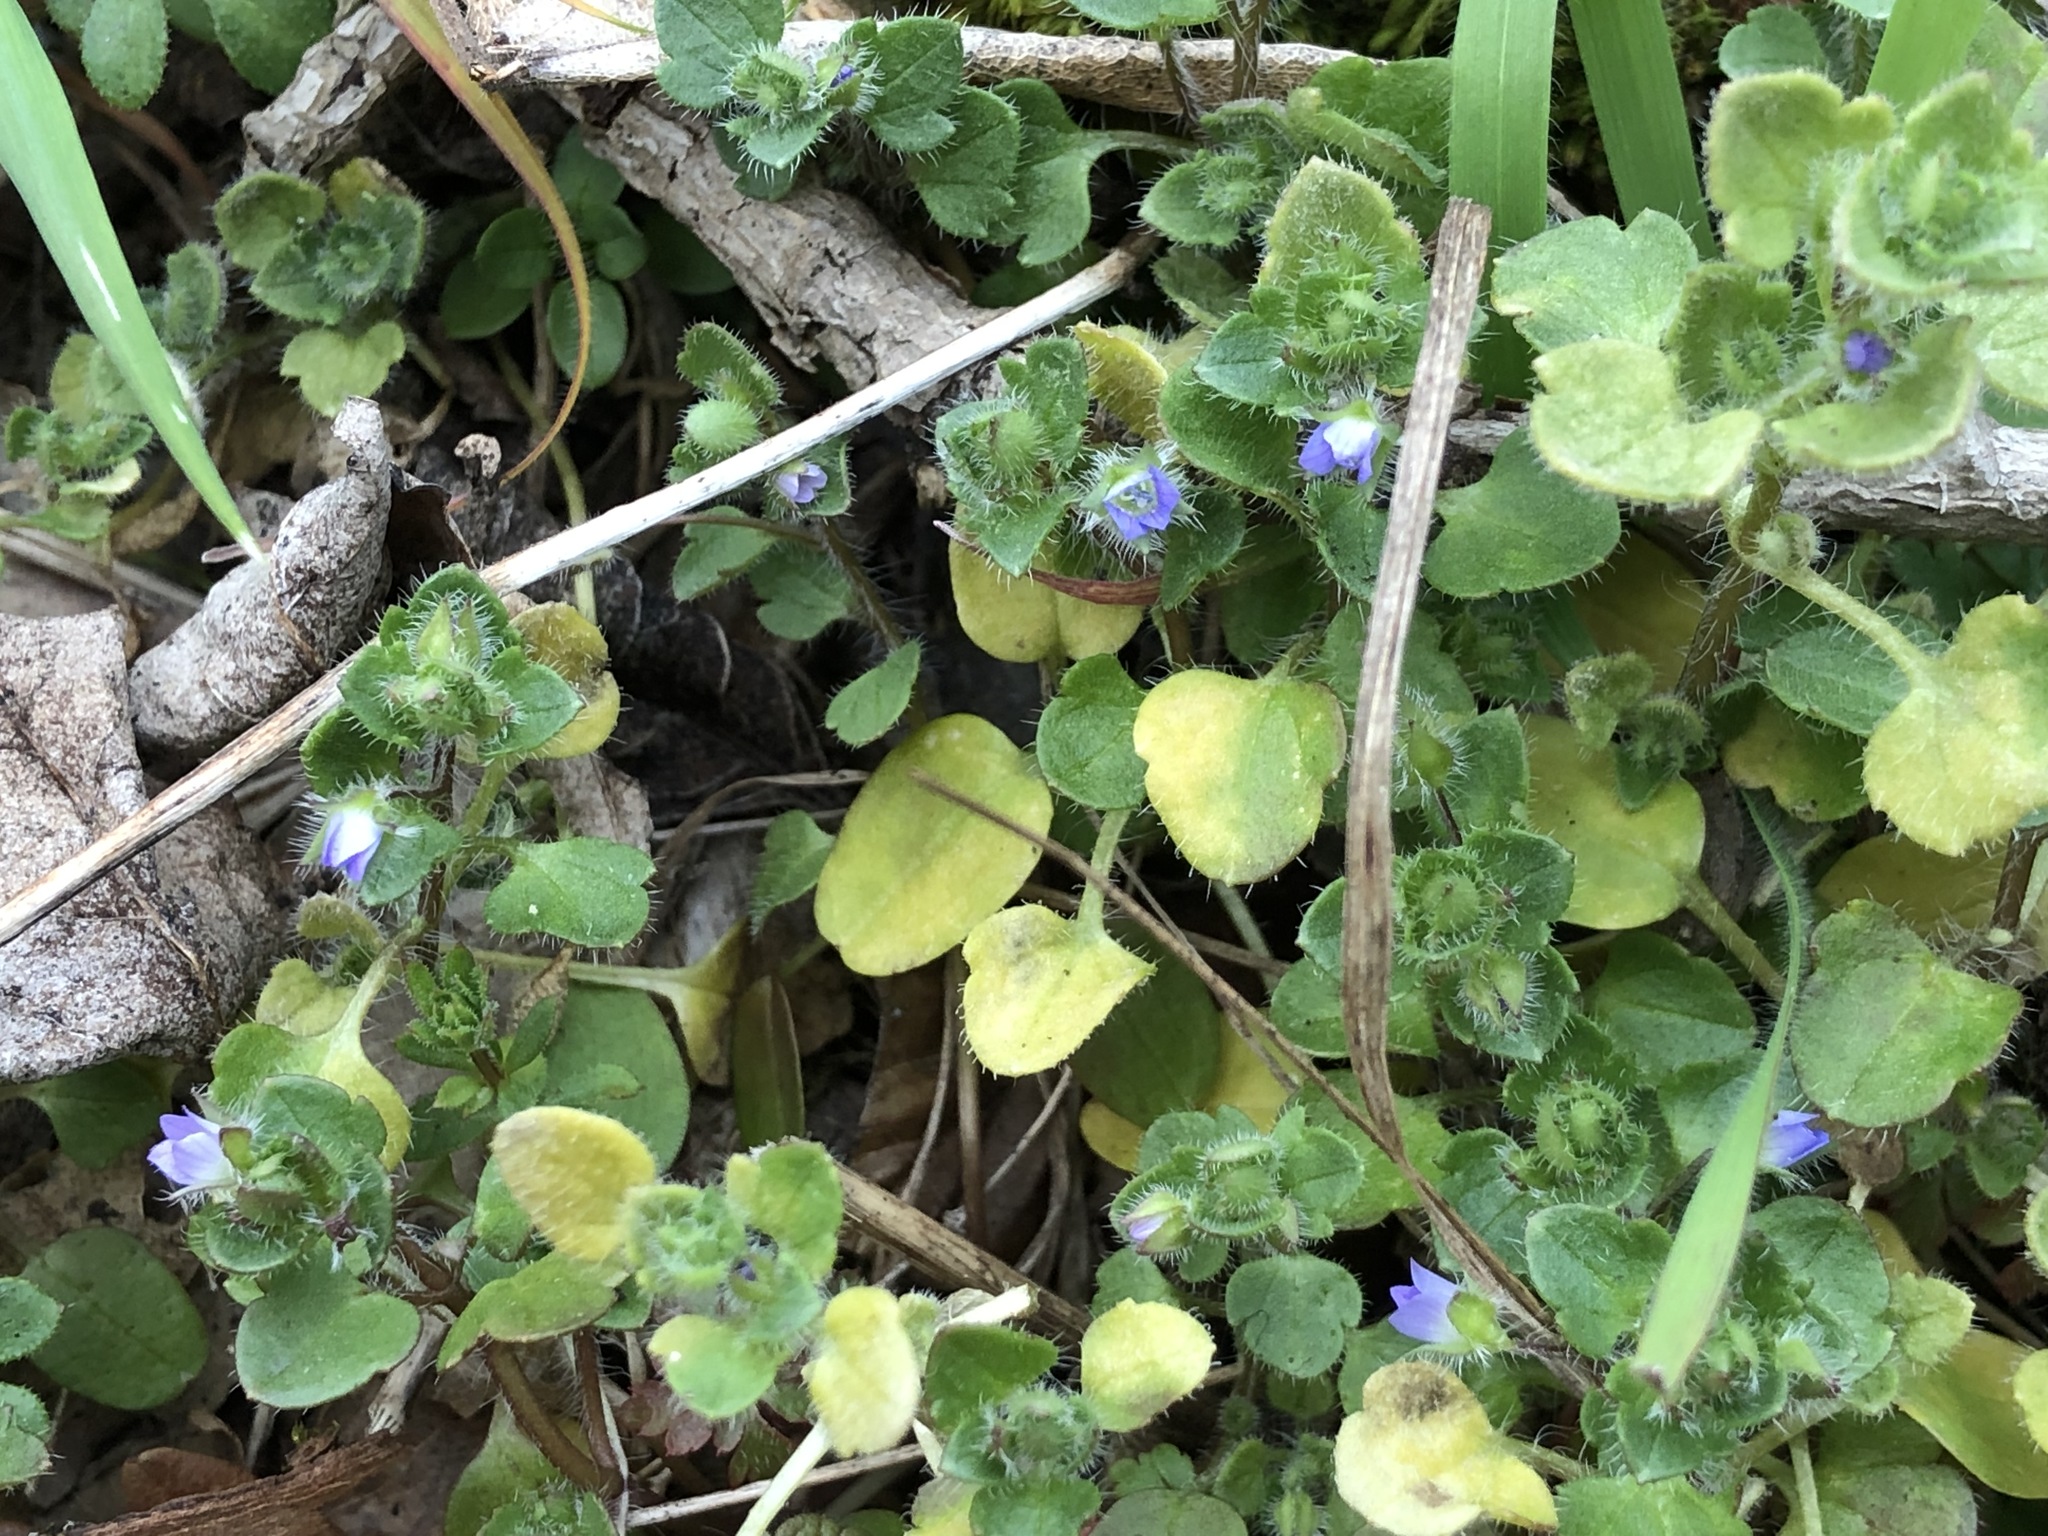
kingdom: Plantae
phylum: Tracheophyta
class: Magnoliopsida
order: Lamiales
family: Plantaginaceae
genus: Veronica
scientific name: Veronica hederifolia
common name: Ivy-leaved speedwell
